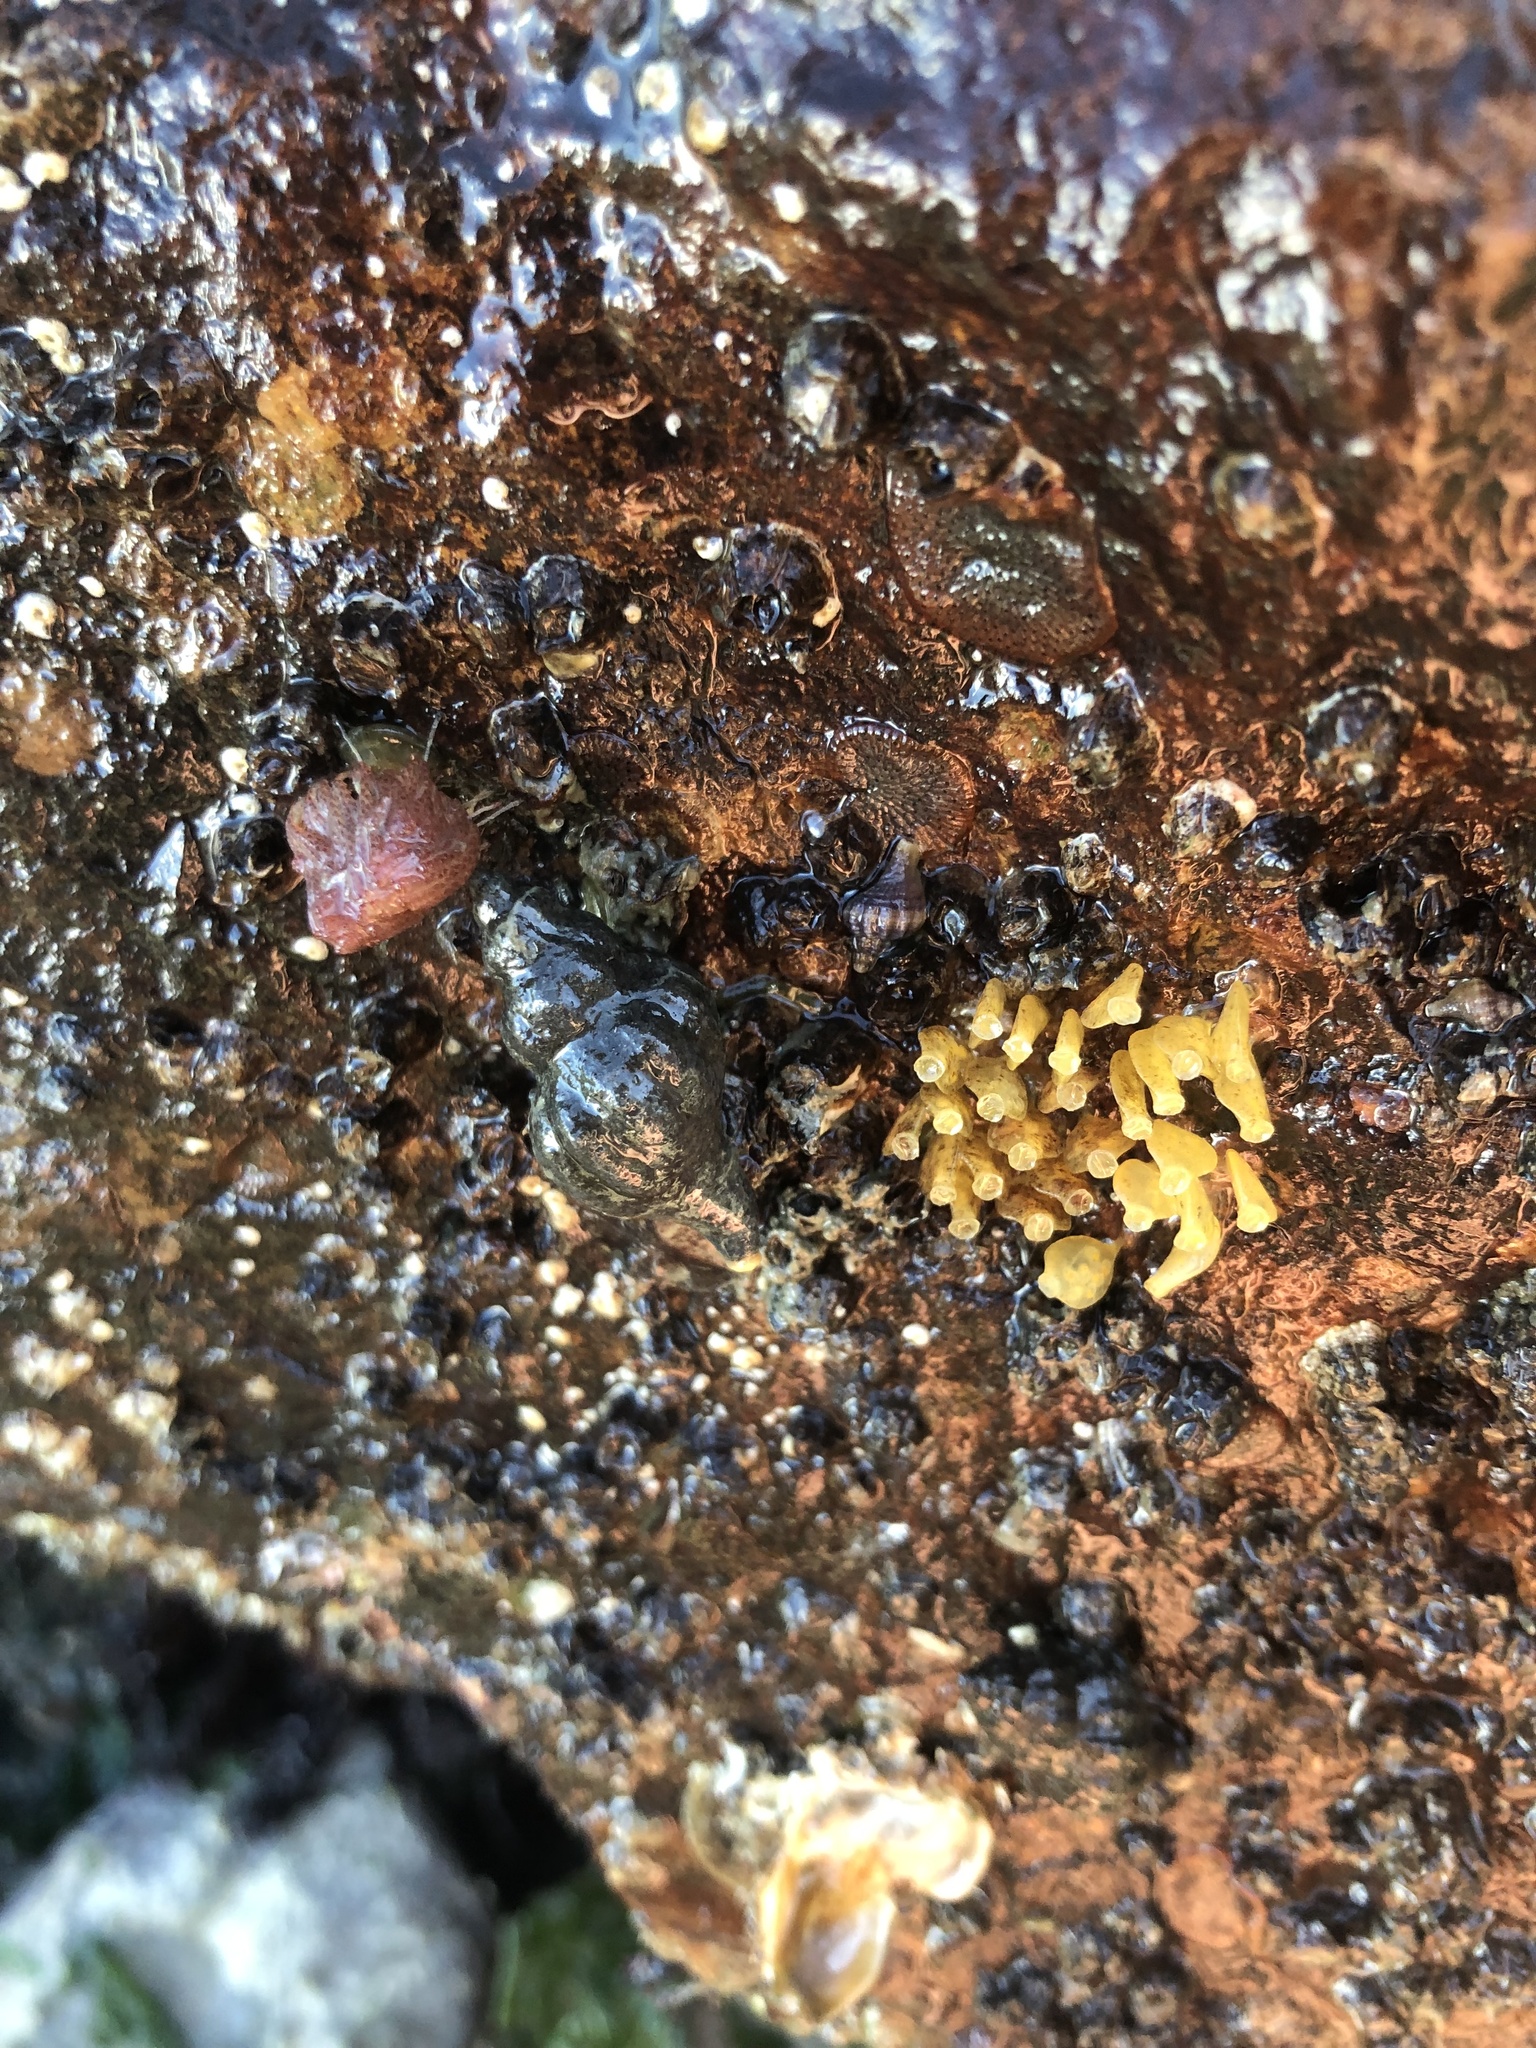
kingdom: Animalia
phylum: Mollusca
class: Gastropoda
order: Neogastropoda
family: Muricidae
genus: Urosalpinx
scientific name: Urosalpinx cinerea
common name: American sting winkle
